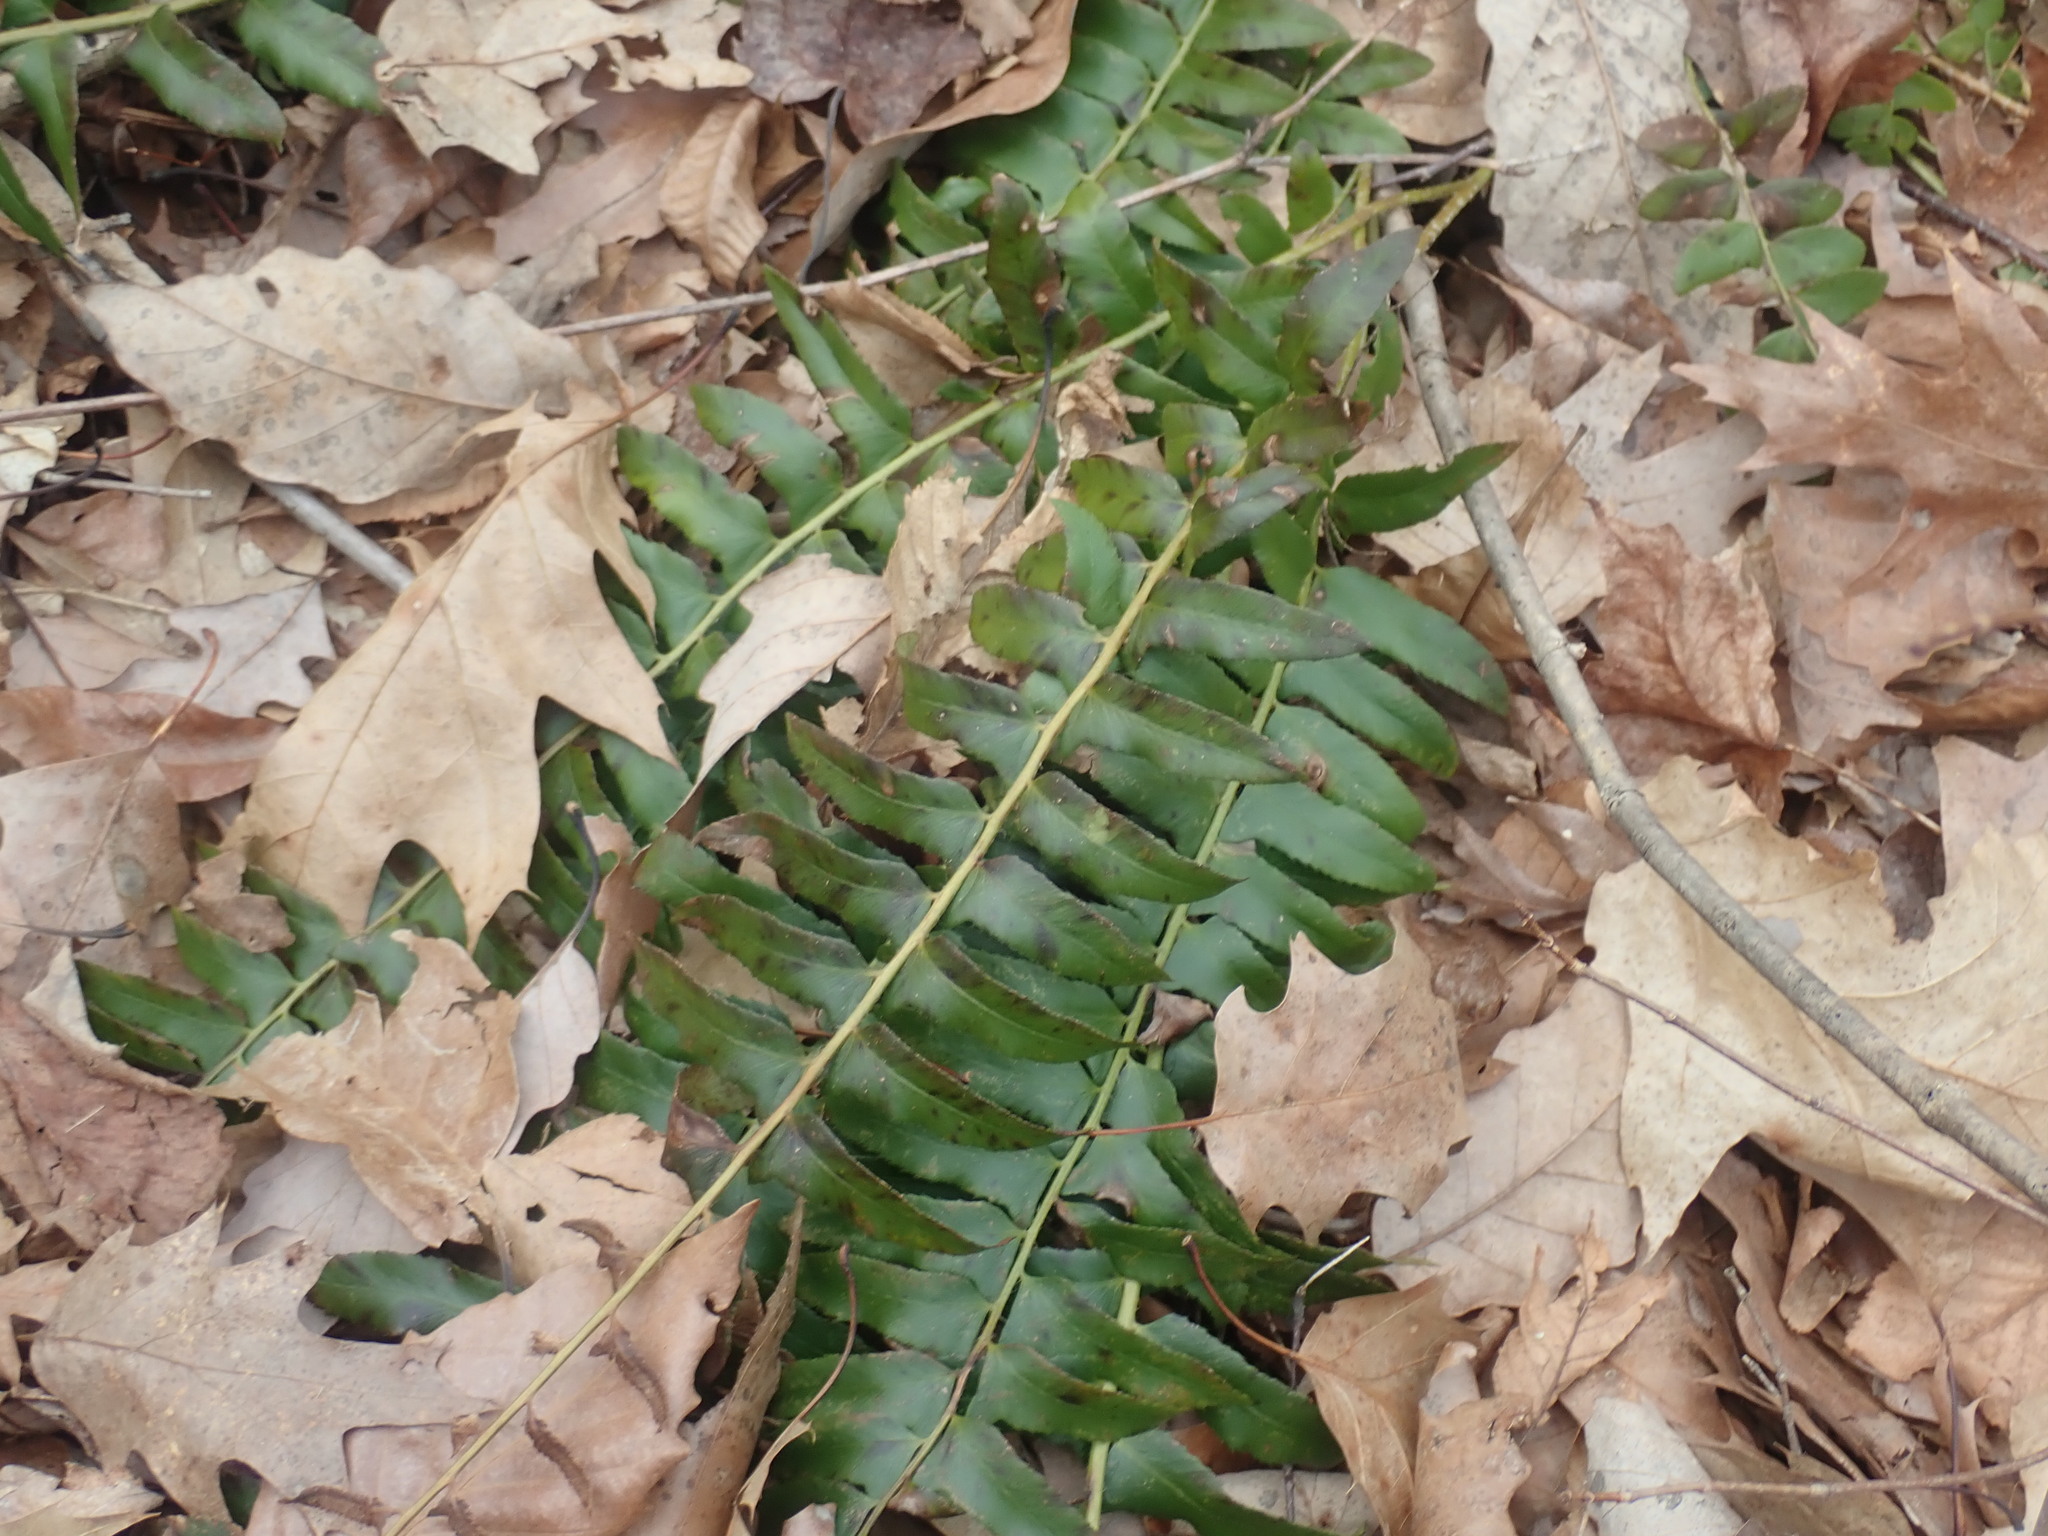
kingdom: Plantae
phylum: Tracheophyta
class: Polypodiopsida
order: Polypodiales
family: Dryopteridaceae
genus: Polystichum
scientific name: Polystichum acrostichoides
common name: Christmas fern
